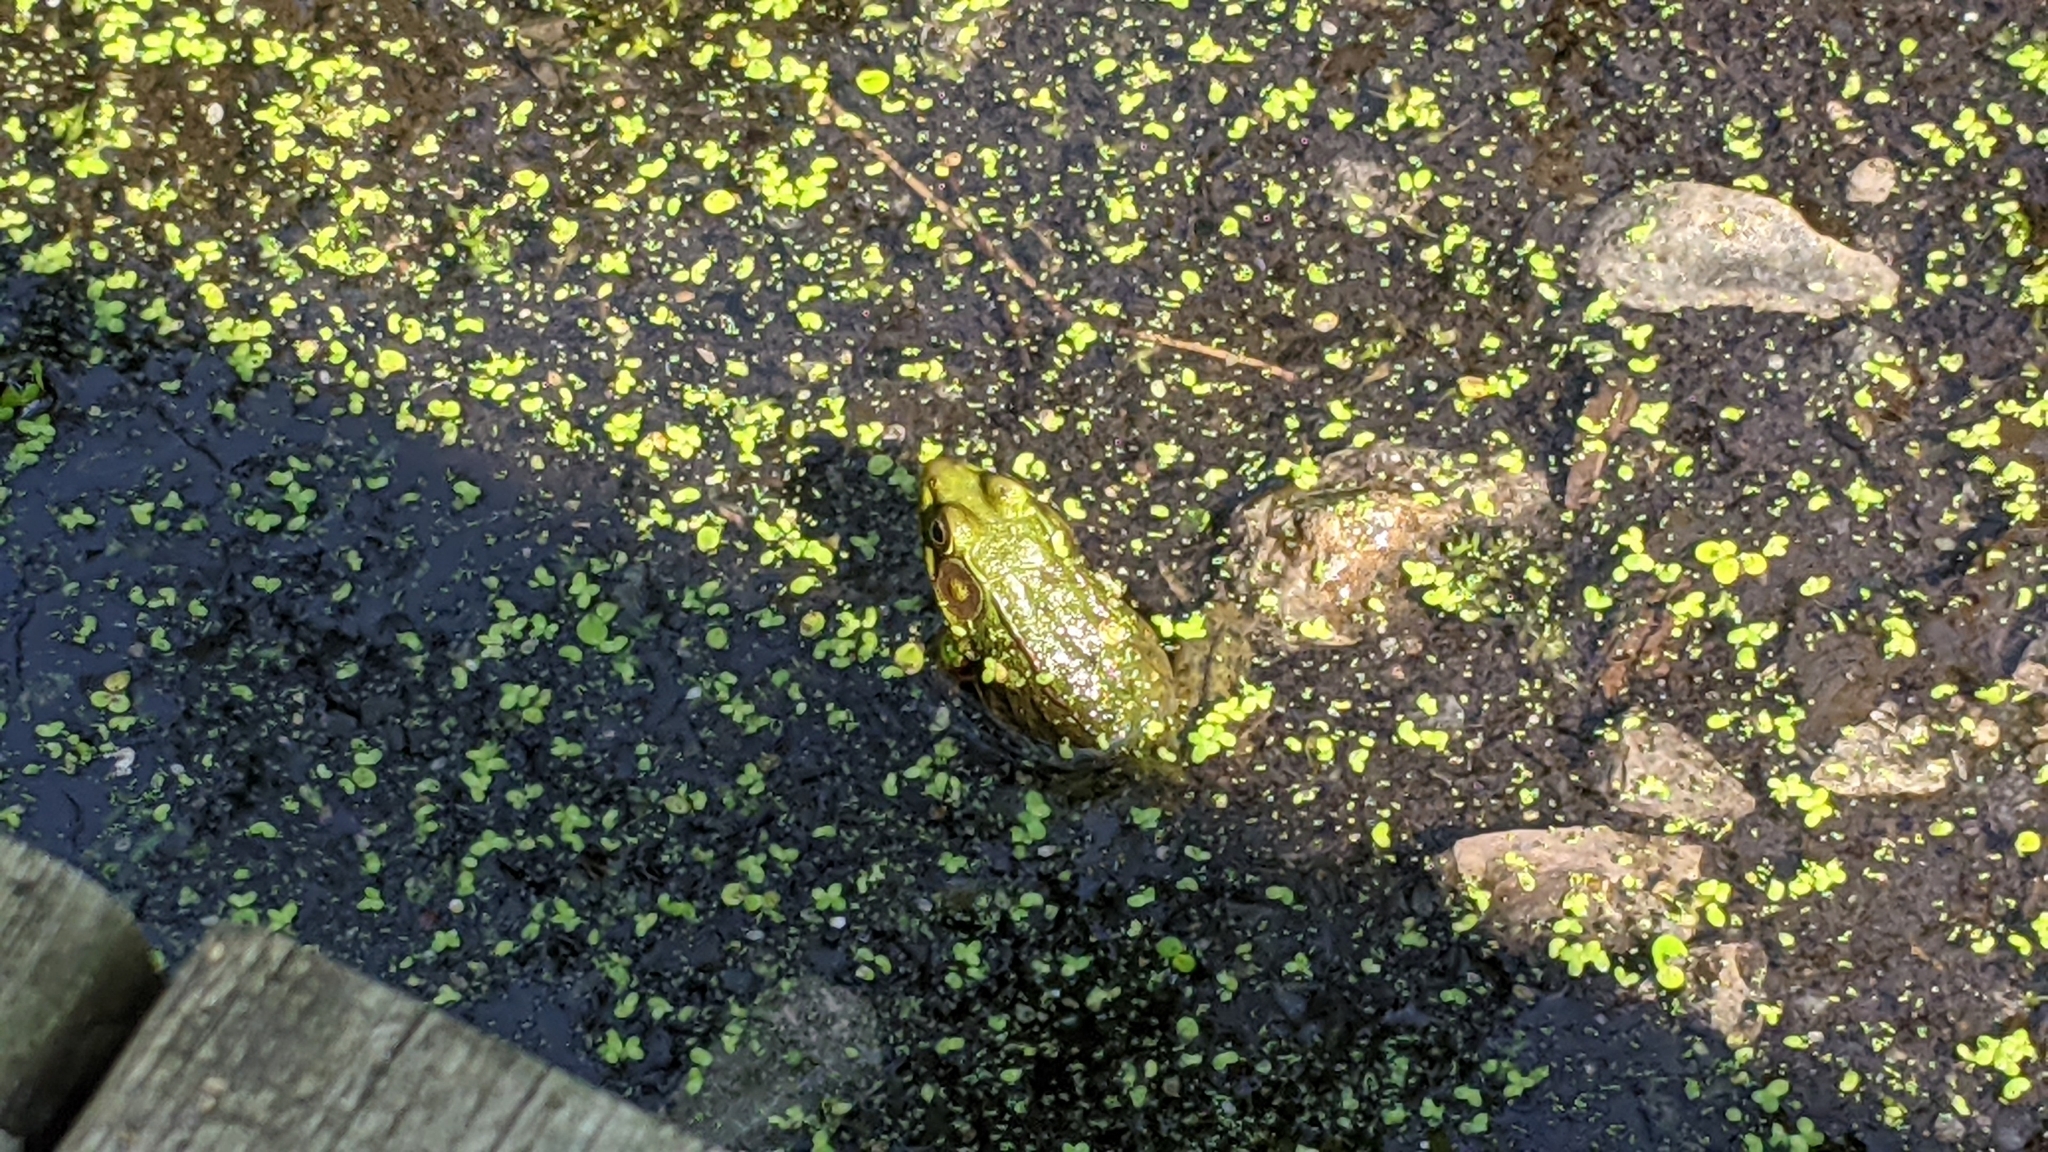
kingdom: Animalia
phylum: Chordata
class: Amphibia
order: Anura
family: Ranidae
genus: Lithobates
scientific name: Lithobates clamitans
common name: Green frog
